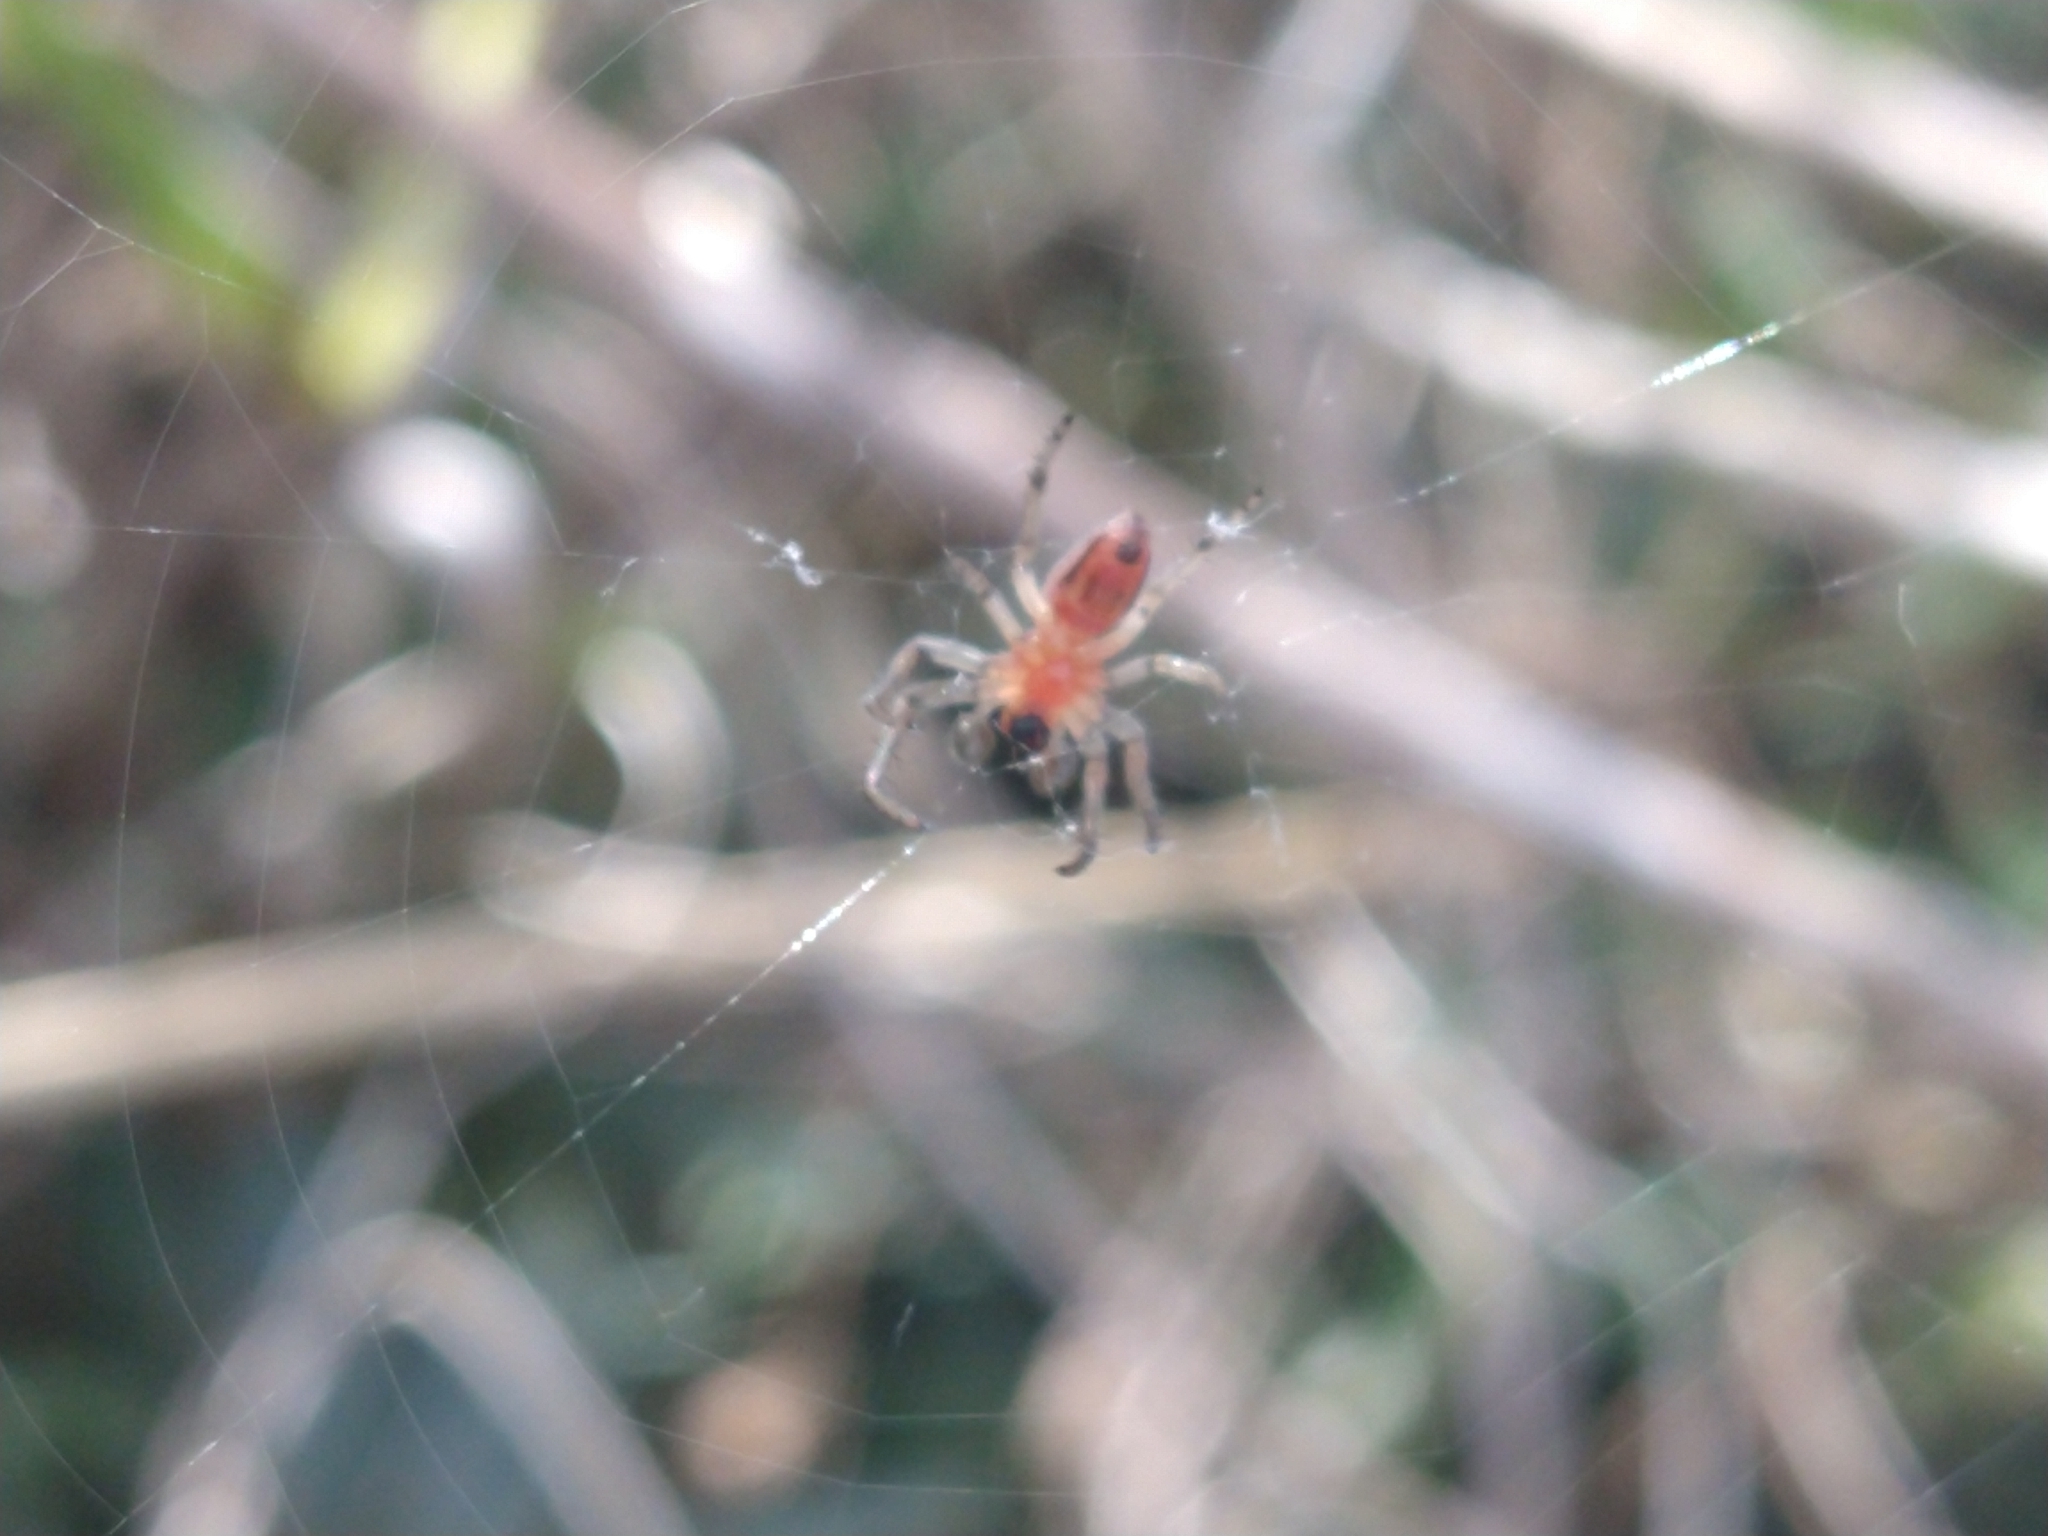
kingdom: Animalia
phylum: Arthropoda
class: Arachnida
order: Araneae
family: Araneidae
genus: Alpaida
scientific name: Alpaida veniliae
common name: Orb weavers
